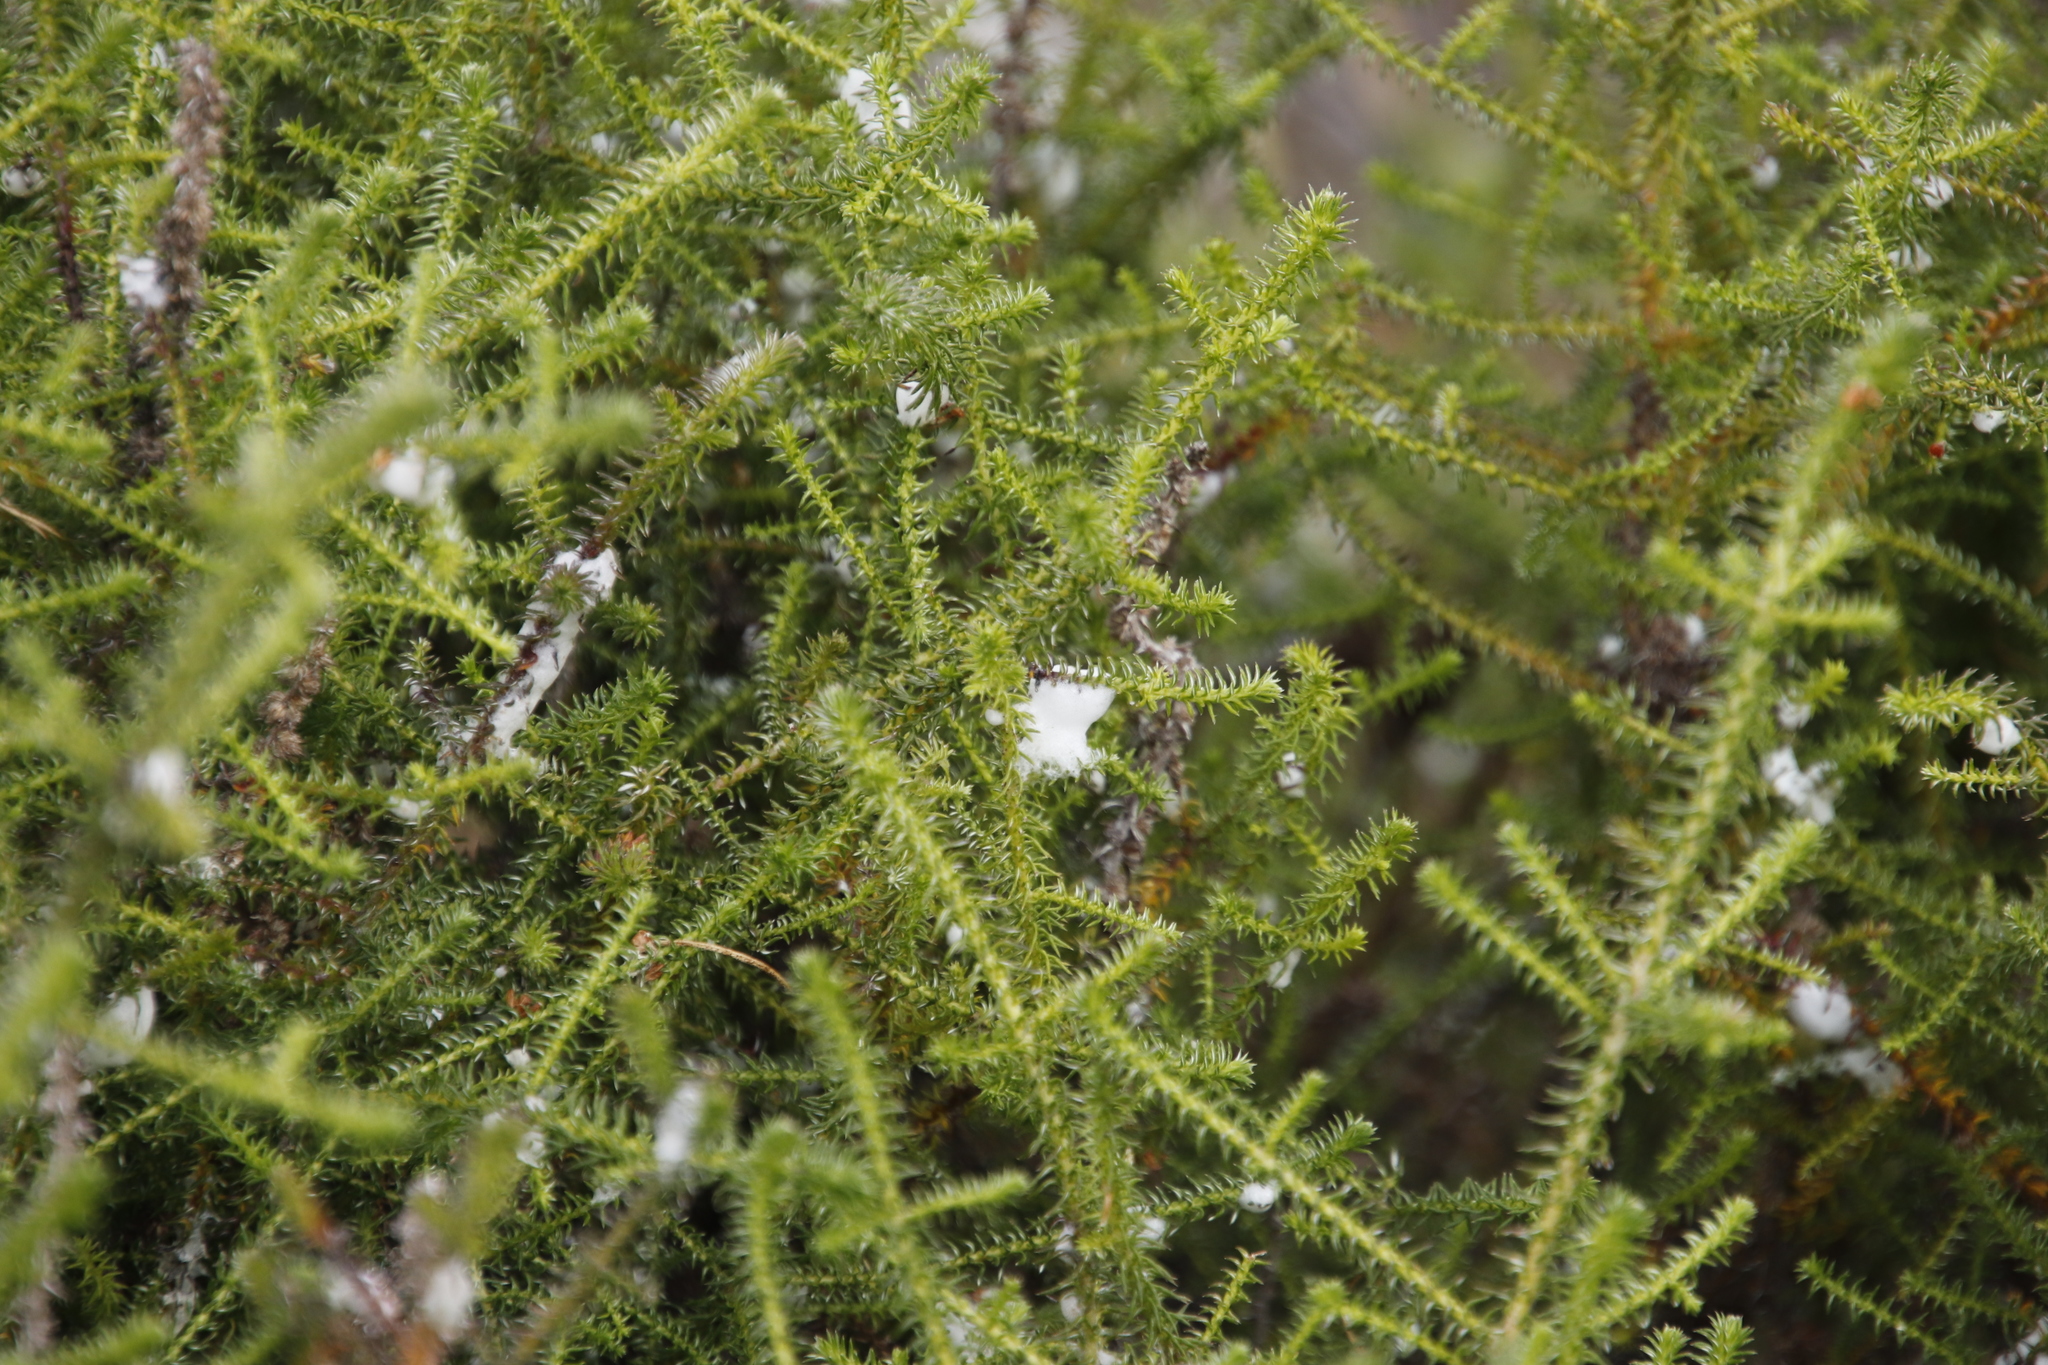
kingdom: Plantae
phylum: Tracheophyta
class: Magnoliopsida
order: Asterales
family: Asteraceae
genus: Seriphium
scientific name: Seriphium cinereum
